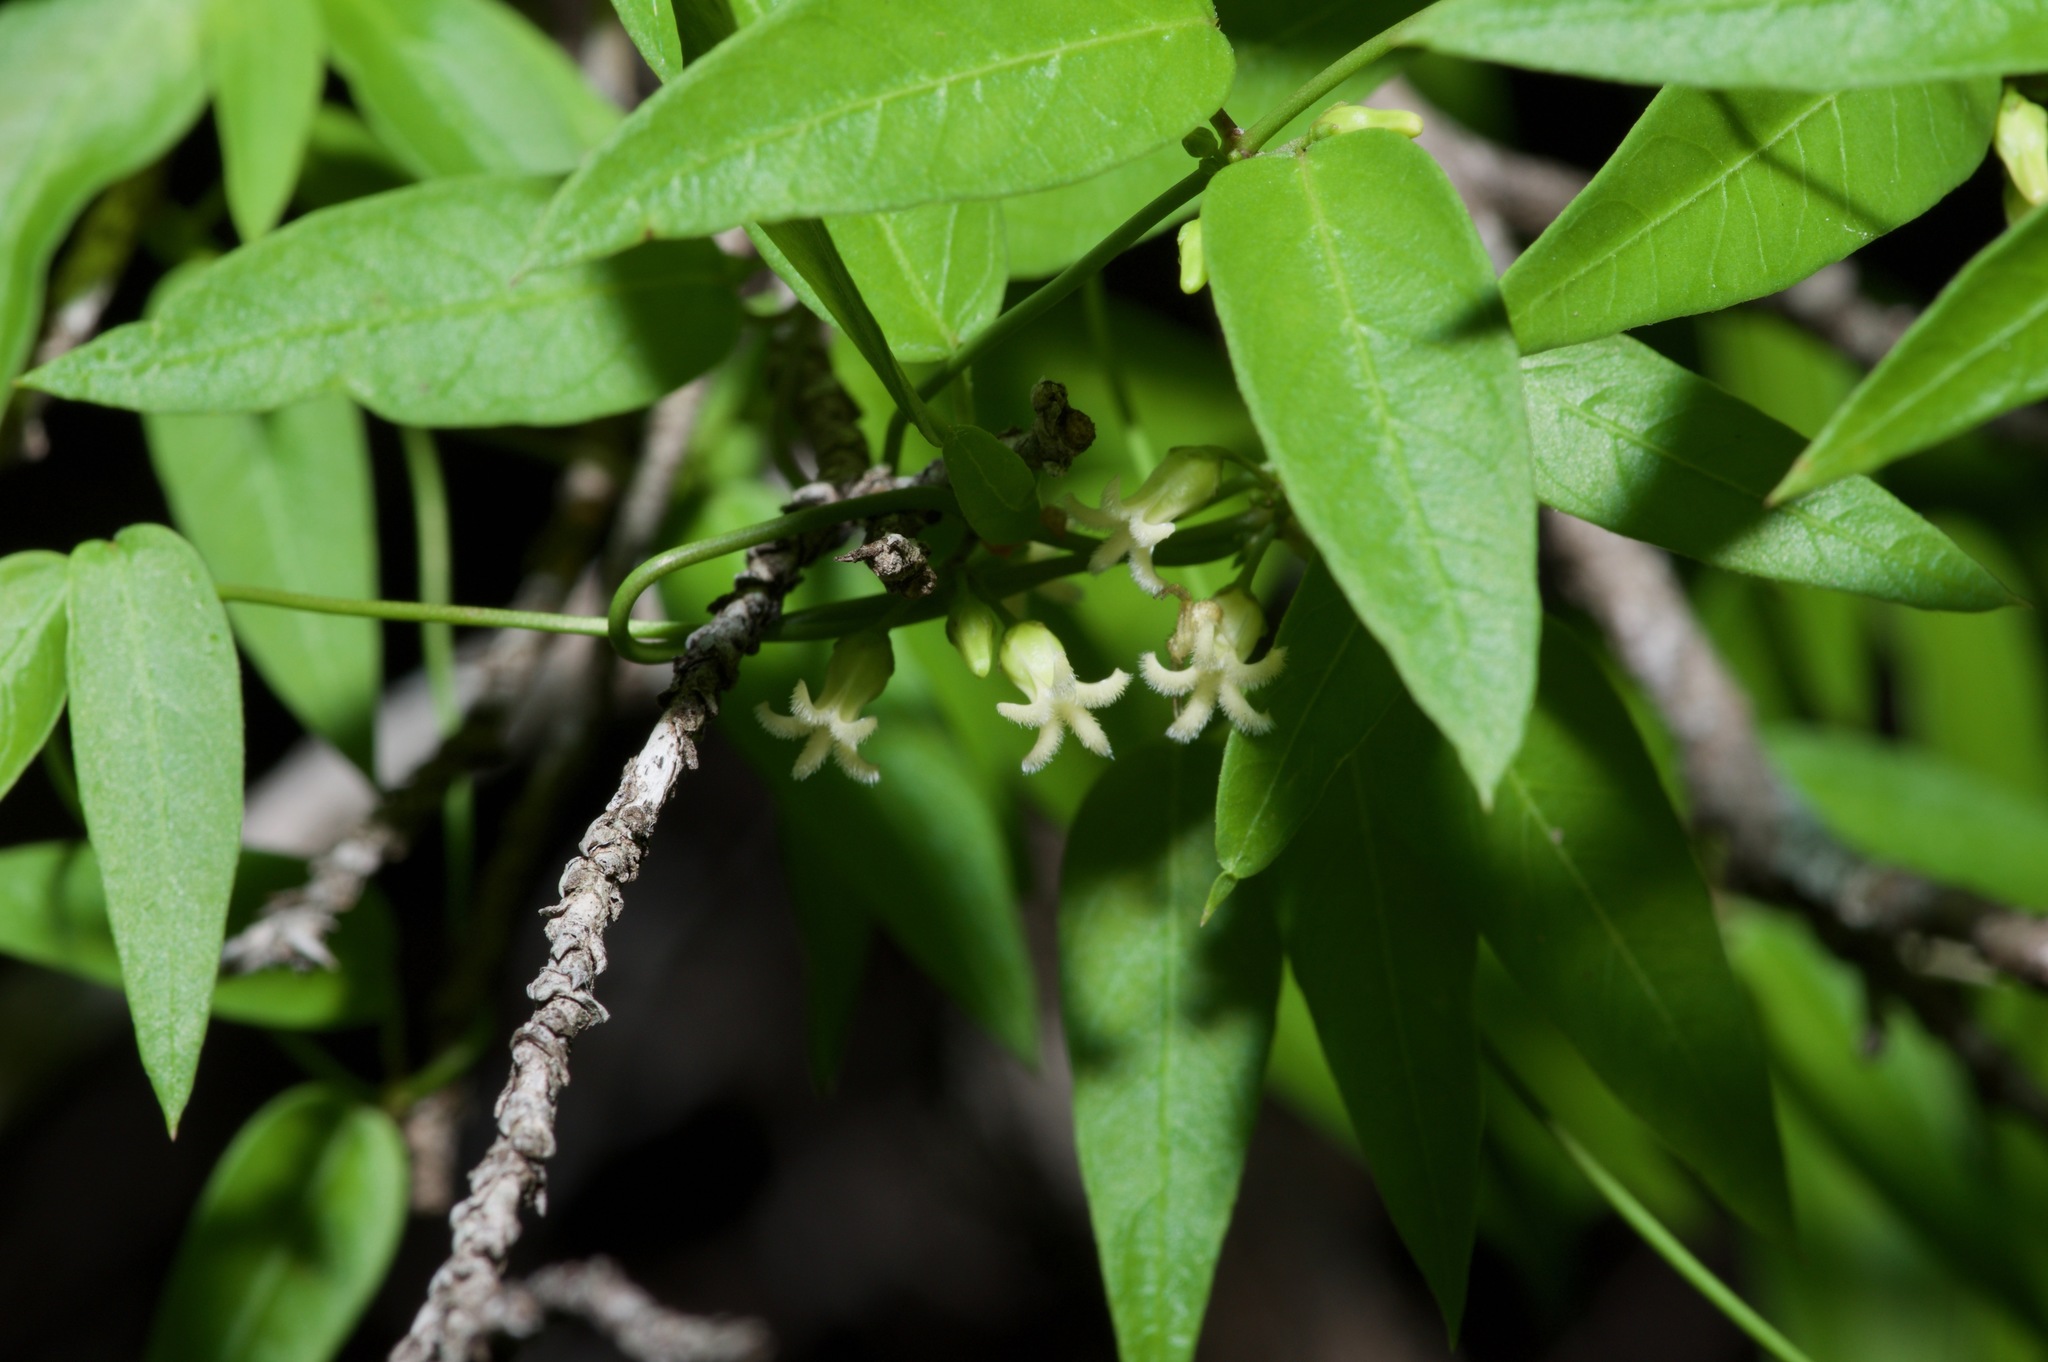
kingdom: Plantae
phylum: Tracheophyta
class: Magnoliopsida
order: Gentianales
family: Apocynaceae
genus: Metastelma
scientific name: Metastelma barbigerum
